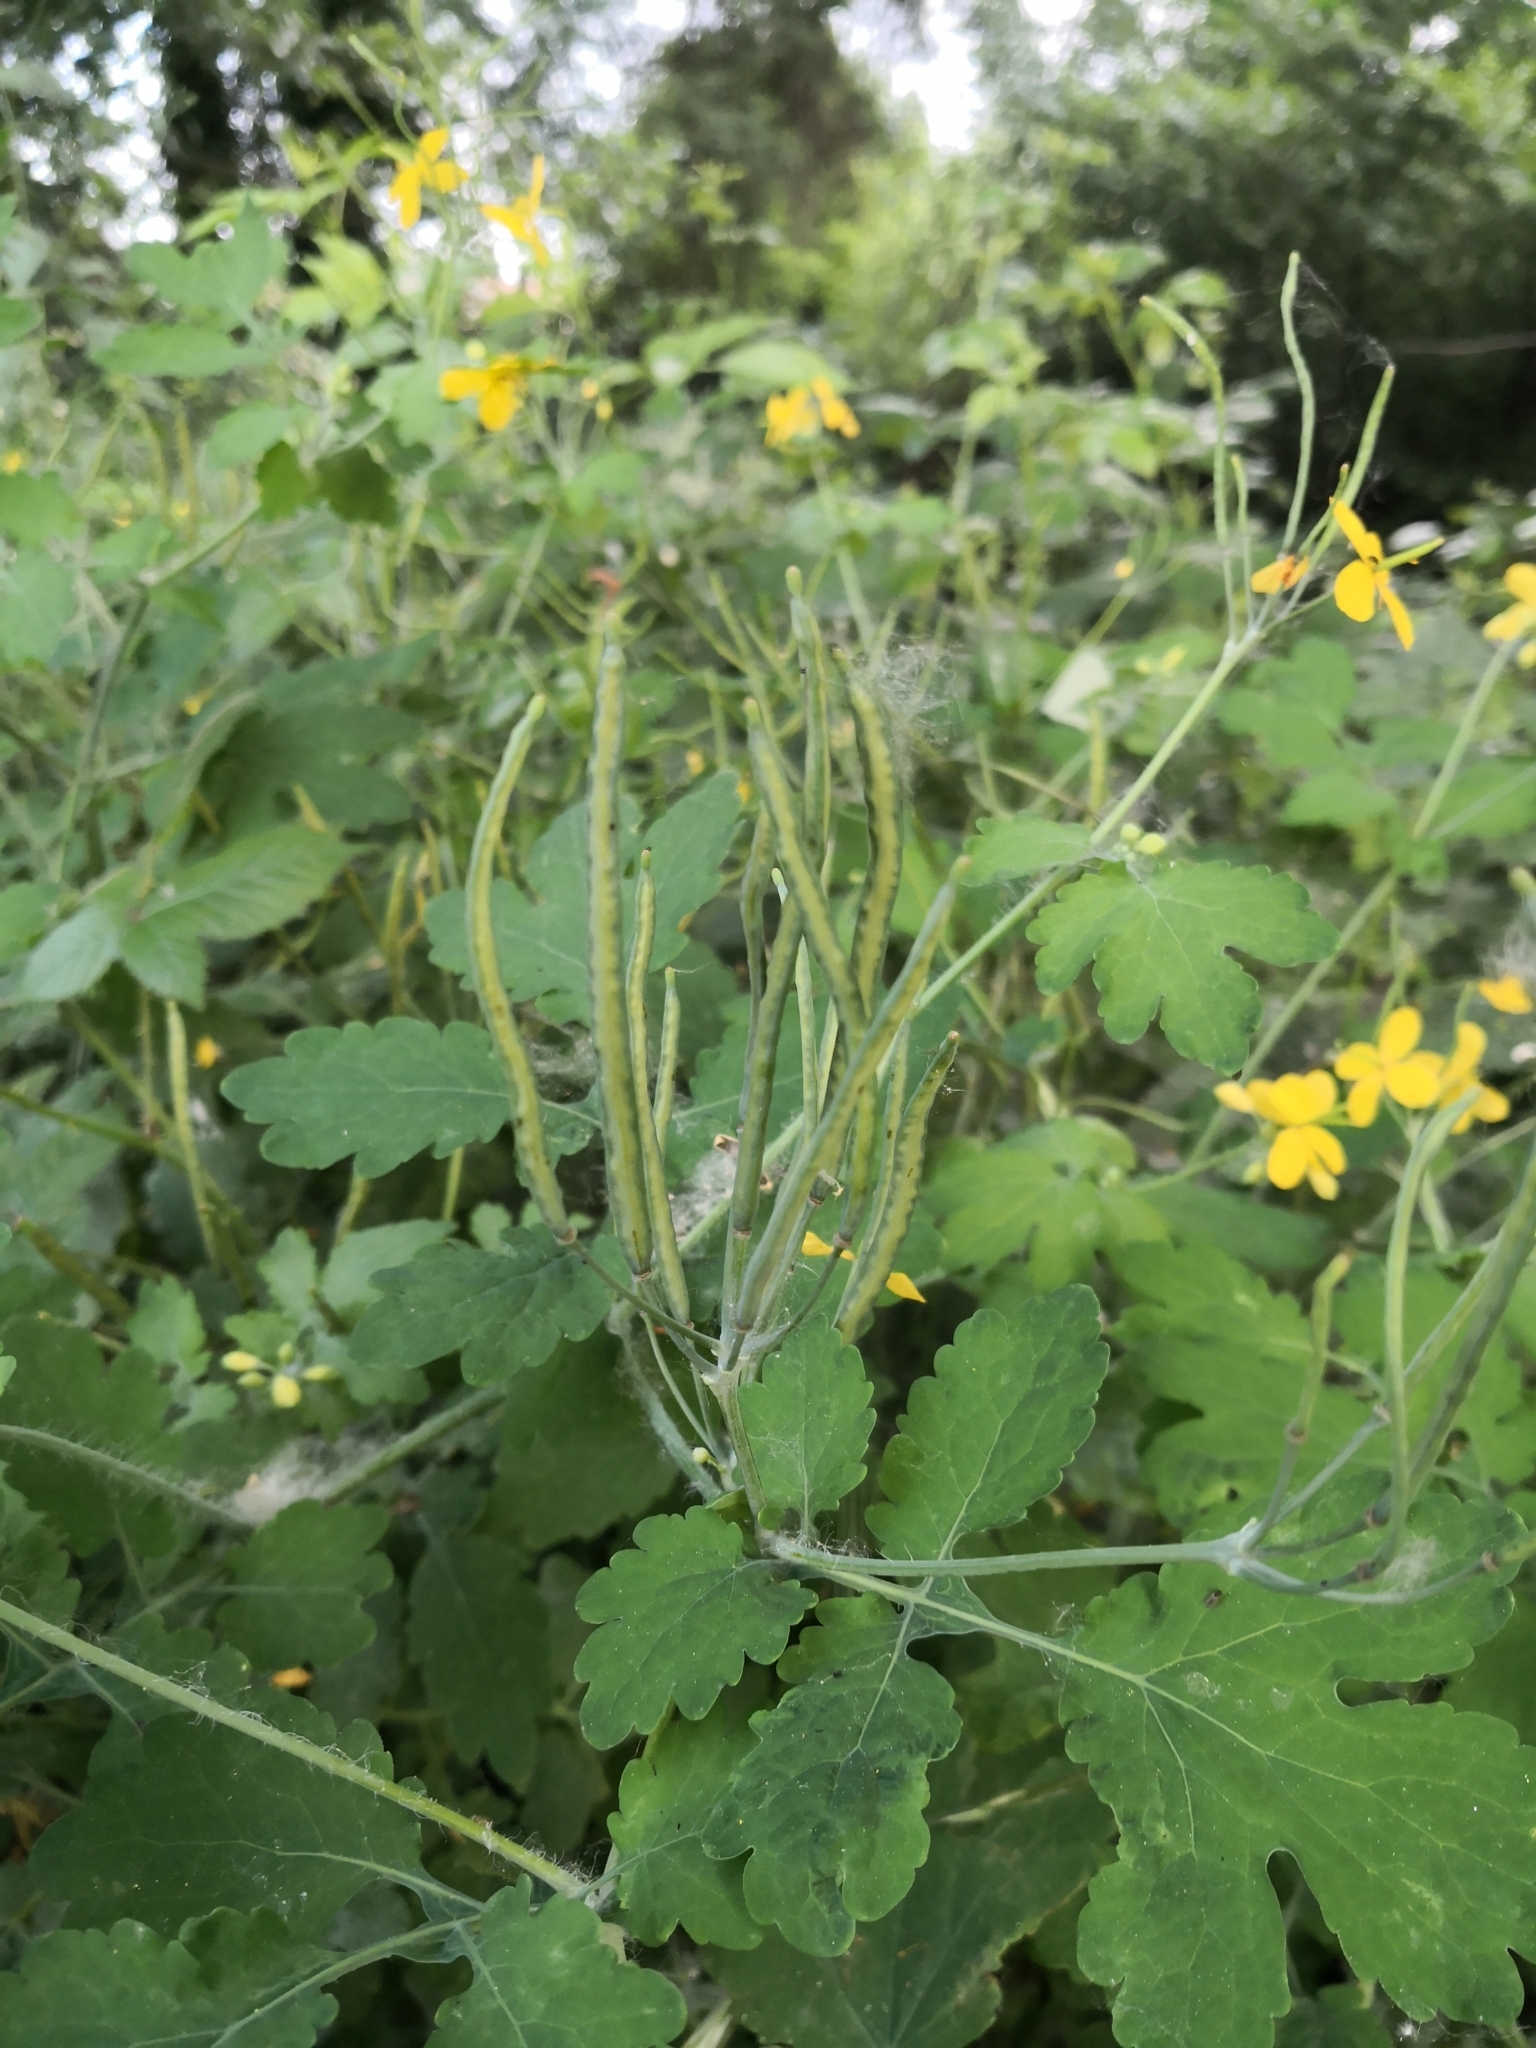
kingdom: Plantae
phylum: Tracheophyta
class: Magnoliopsida
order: Ranunculales
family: Papaveraceae
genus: Chelidonium
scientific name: Chelidonium majus
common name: Greater celandine
